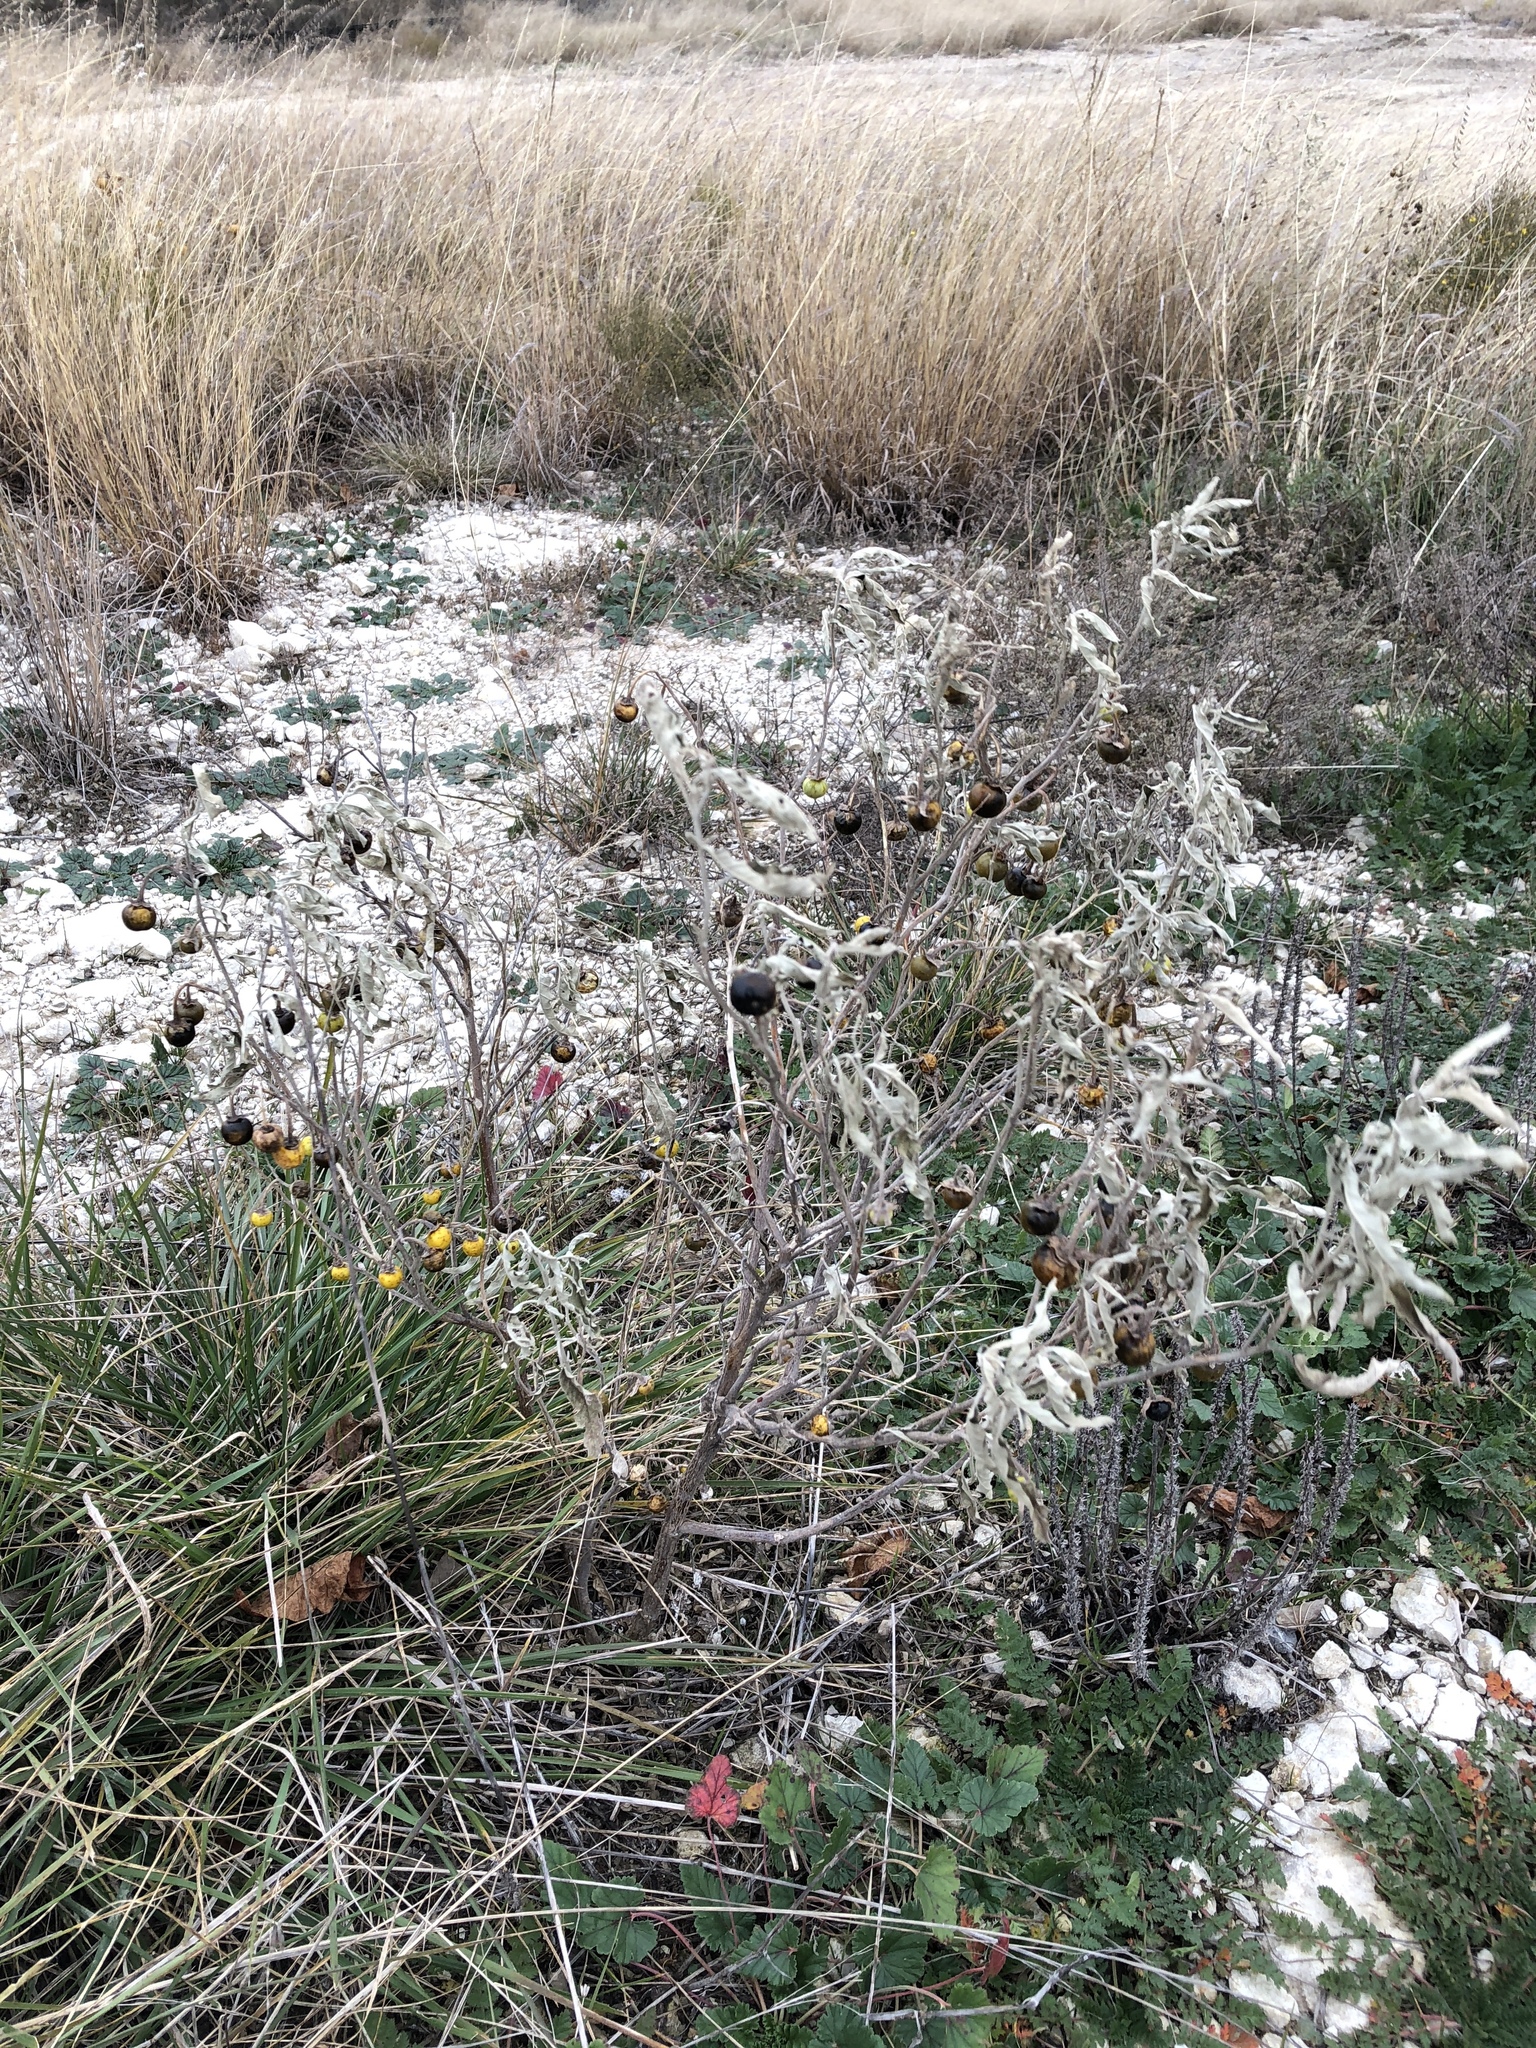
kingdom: Plantae
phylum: Tracheophyta
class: Magnoliopsida
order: Solanales
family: Solanaceae
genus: Solanum
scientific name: Solanum elaeagnifolium
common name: Silverleaf nightshade
